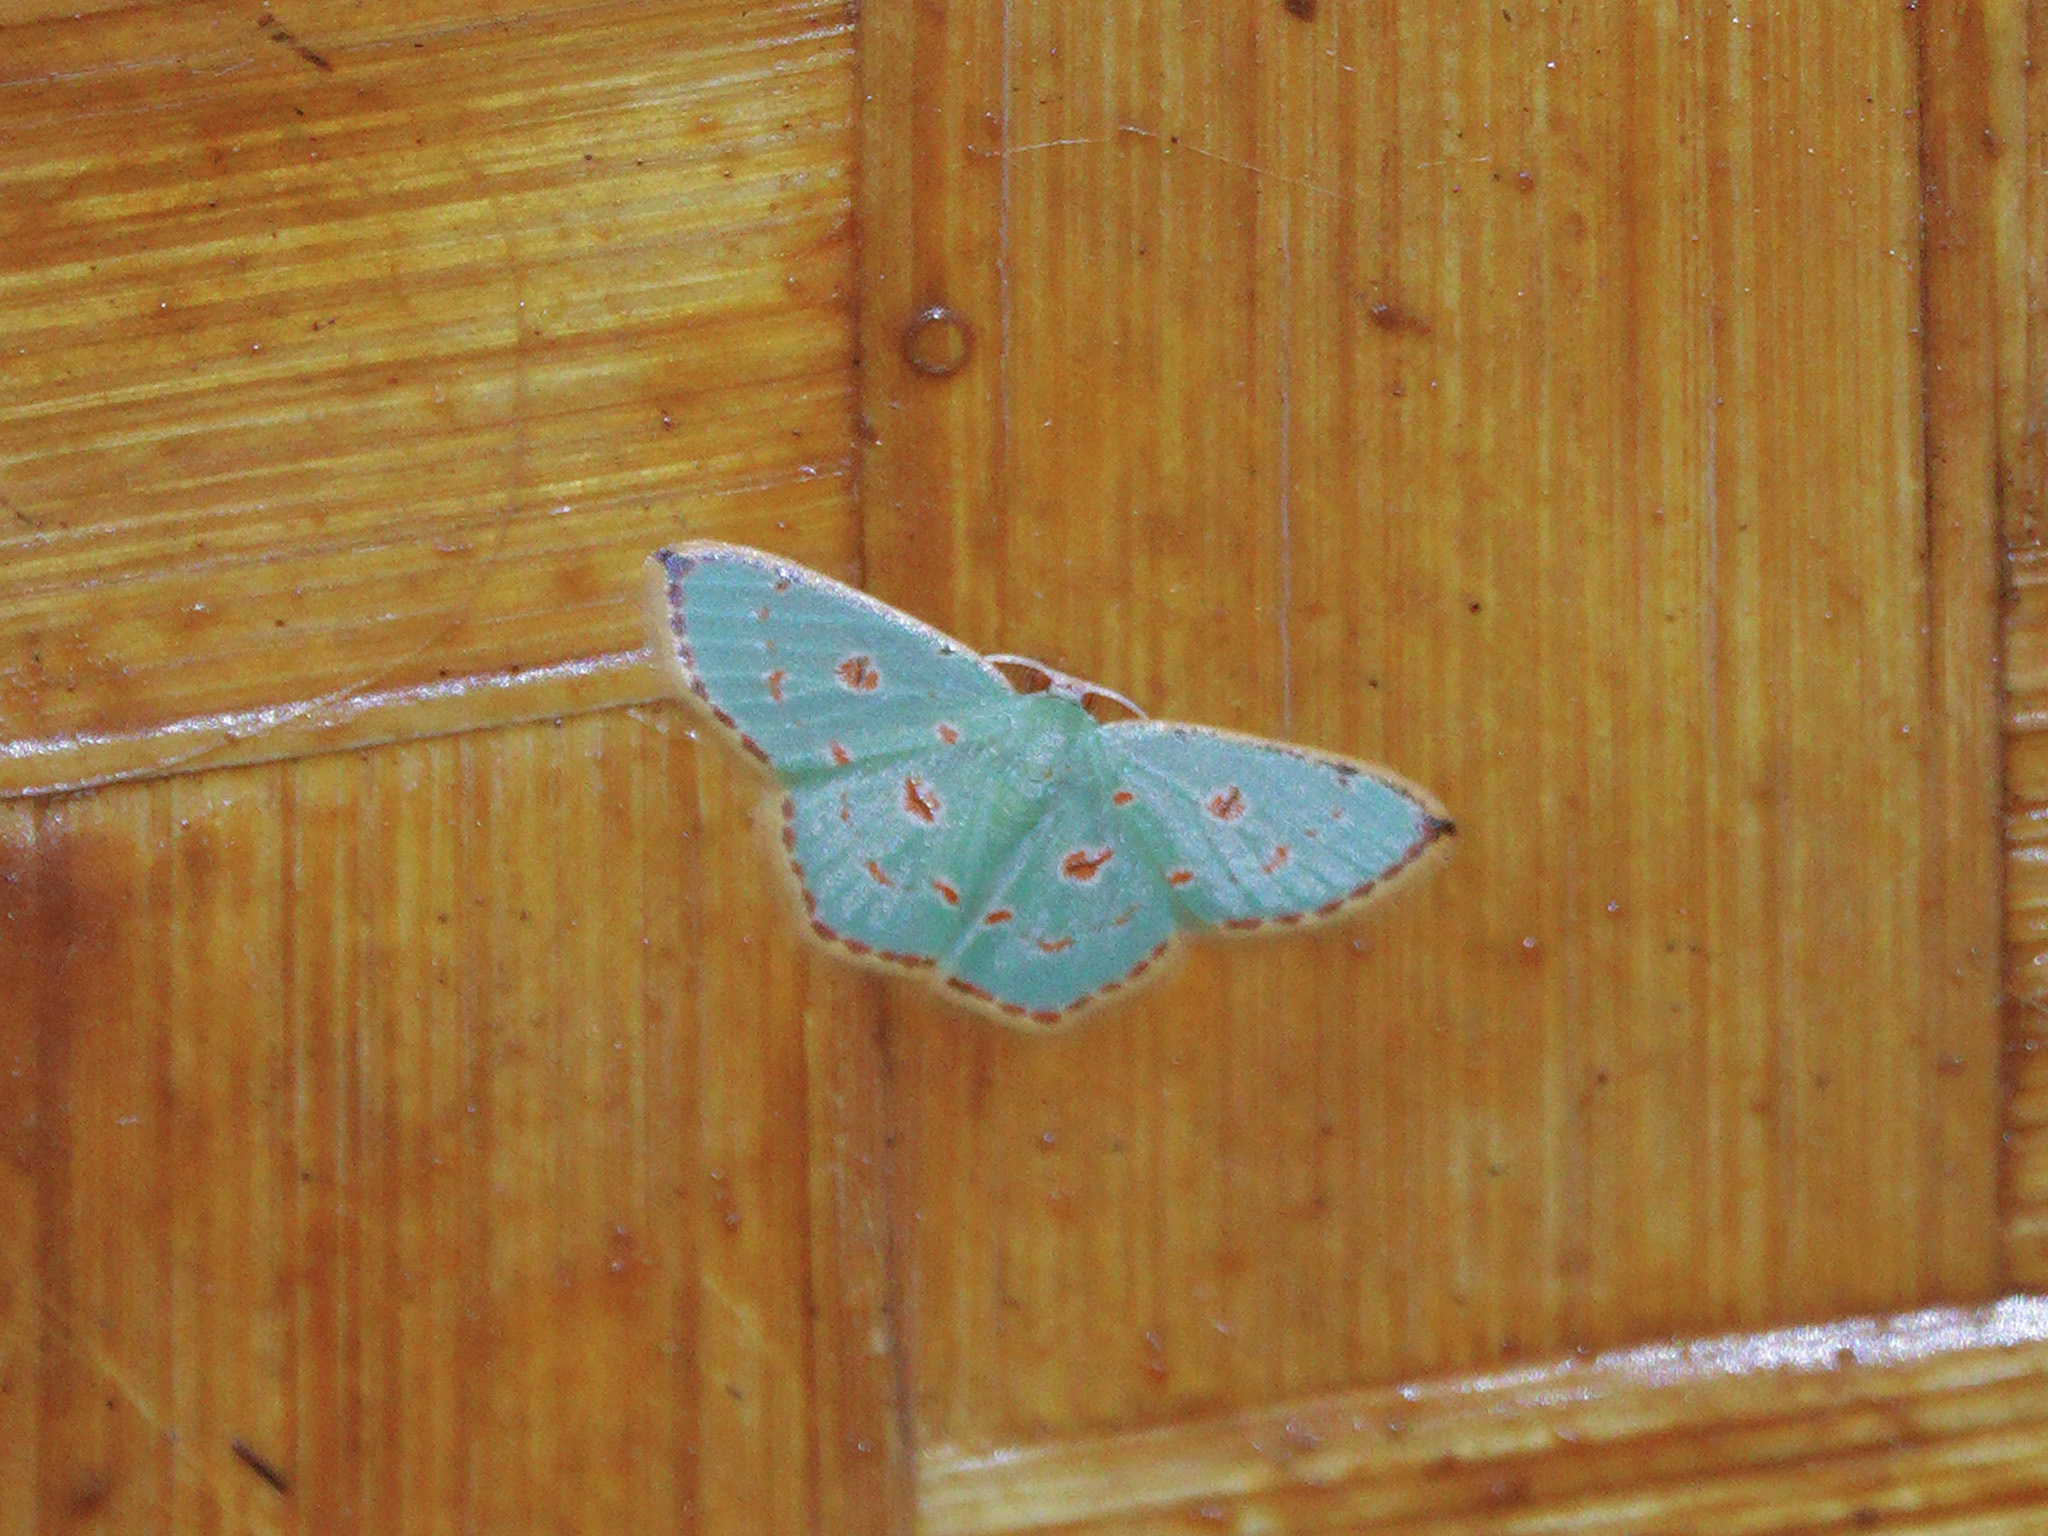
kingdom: Animalia
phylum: Arthropoda
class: Insecta
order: Lepidoptera
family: Geometridae
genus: Comostola
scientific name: Comostola laesaria
